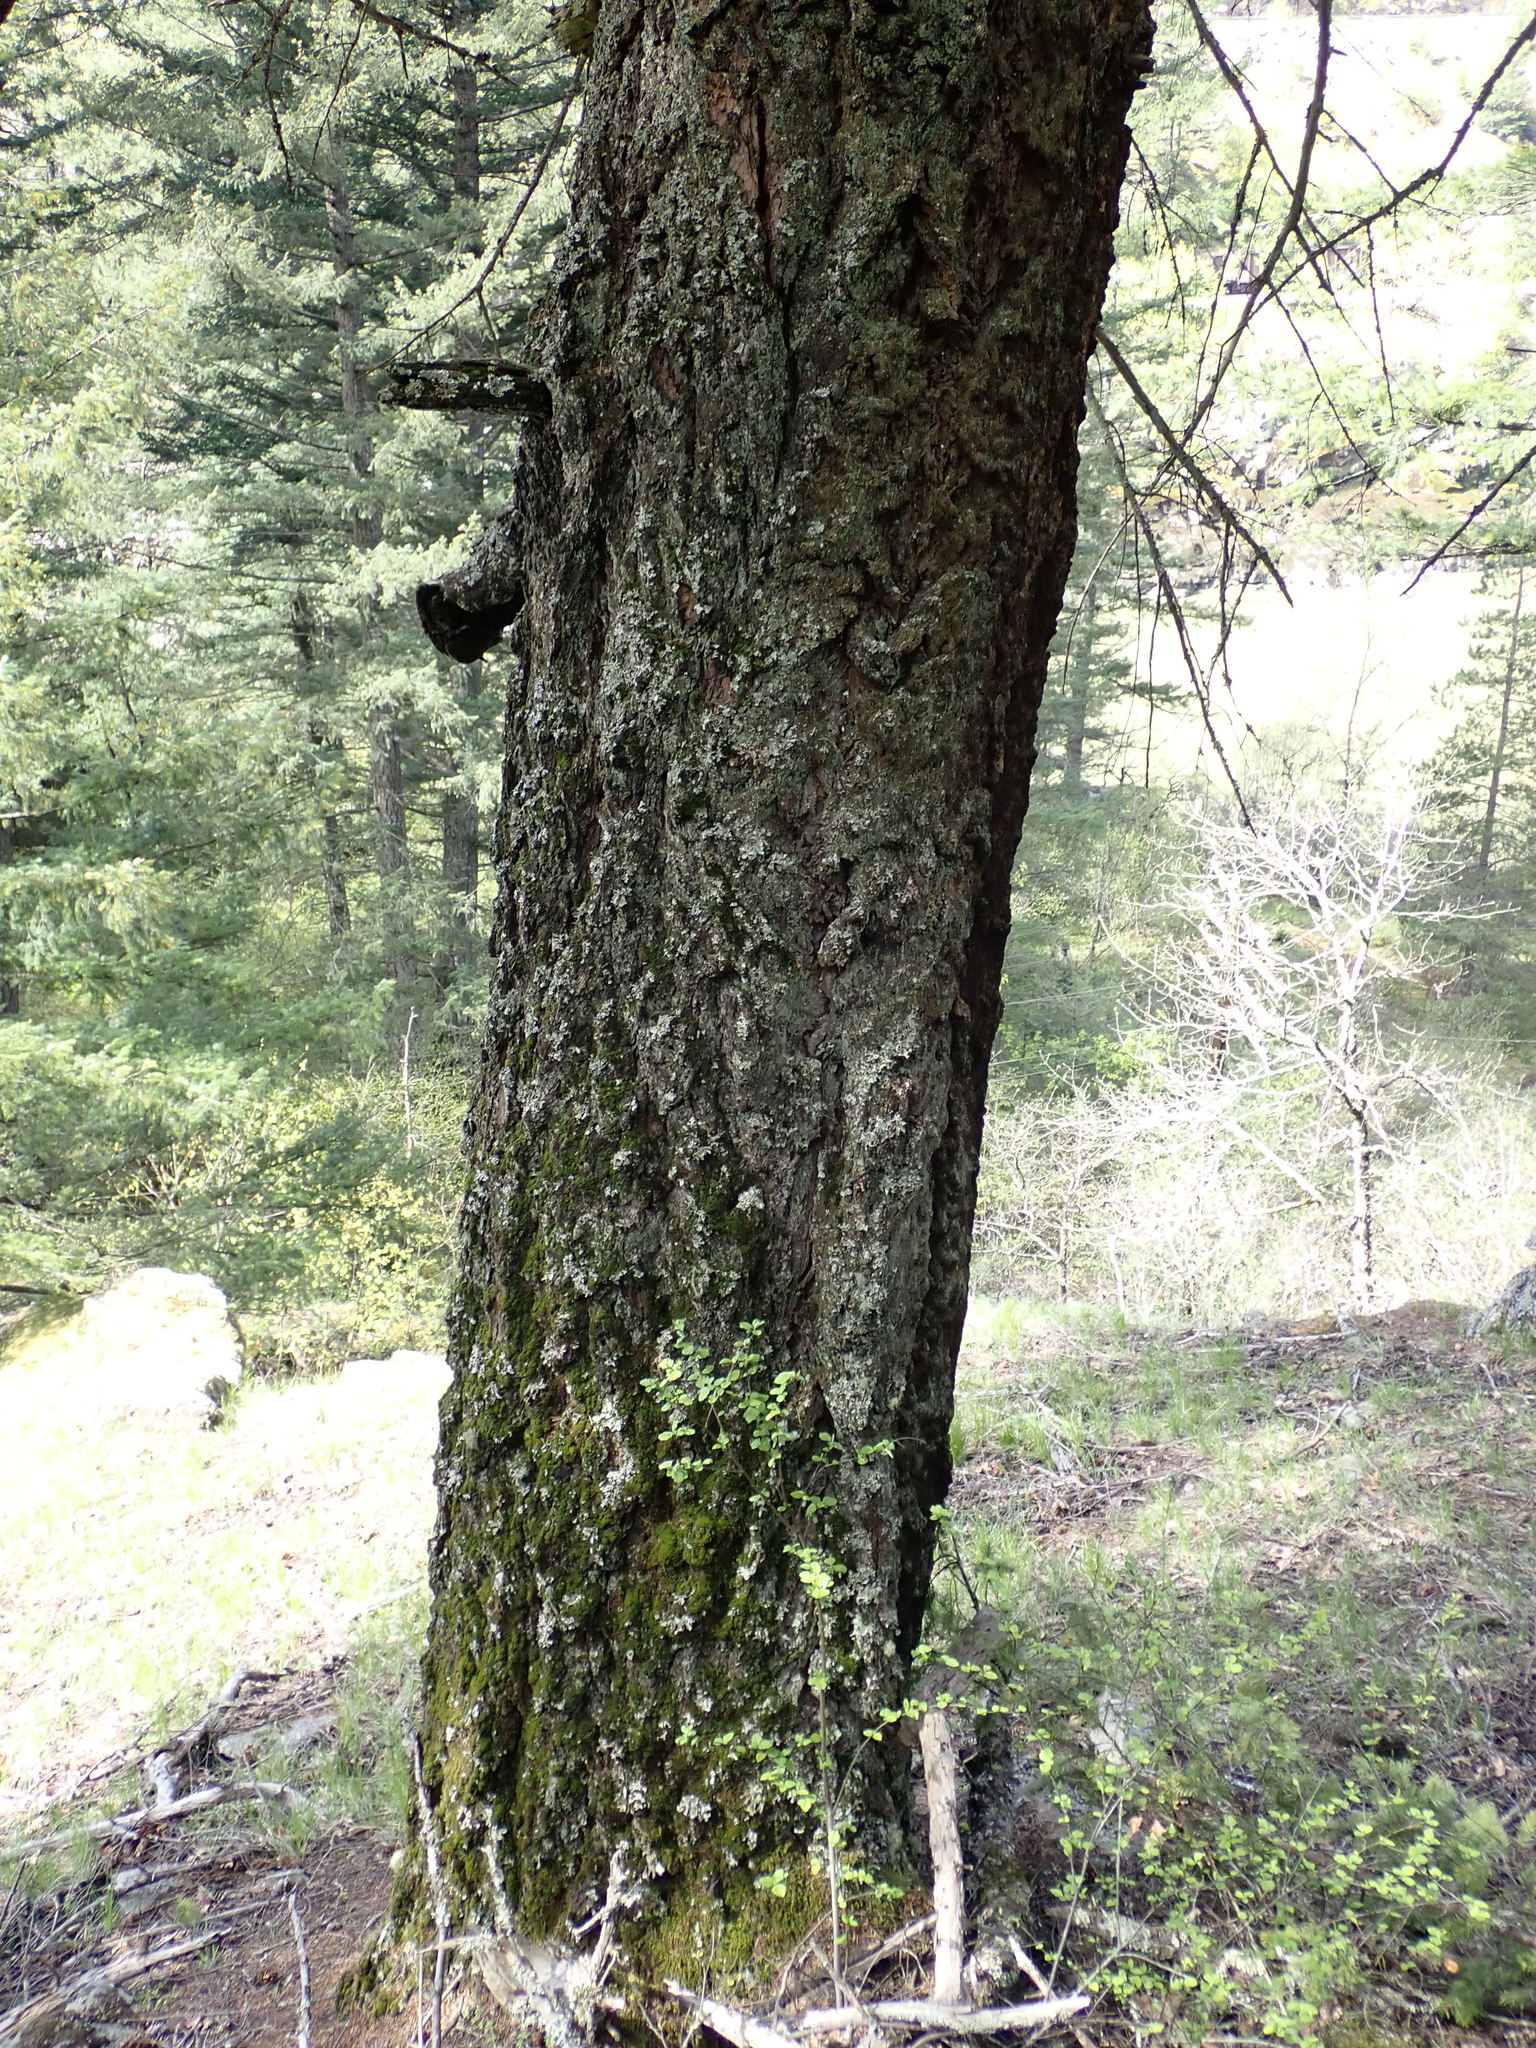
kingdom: Plantae
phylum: Tracheophyta
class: Pinopsida
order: Pinales
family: Pinaceae
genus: Pseudotsuga
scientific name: Pseudotsuga menziesii
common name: Douglas fir
